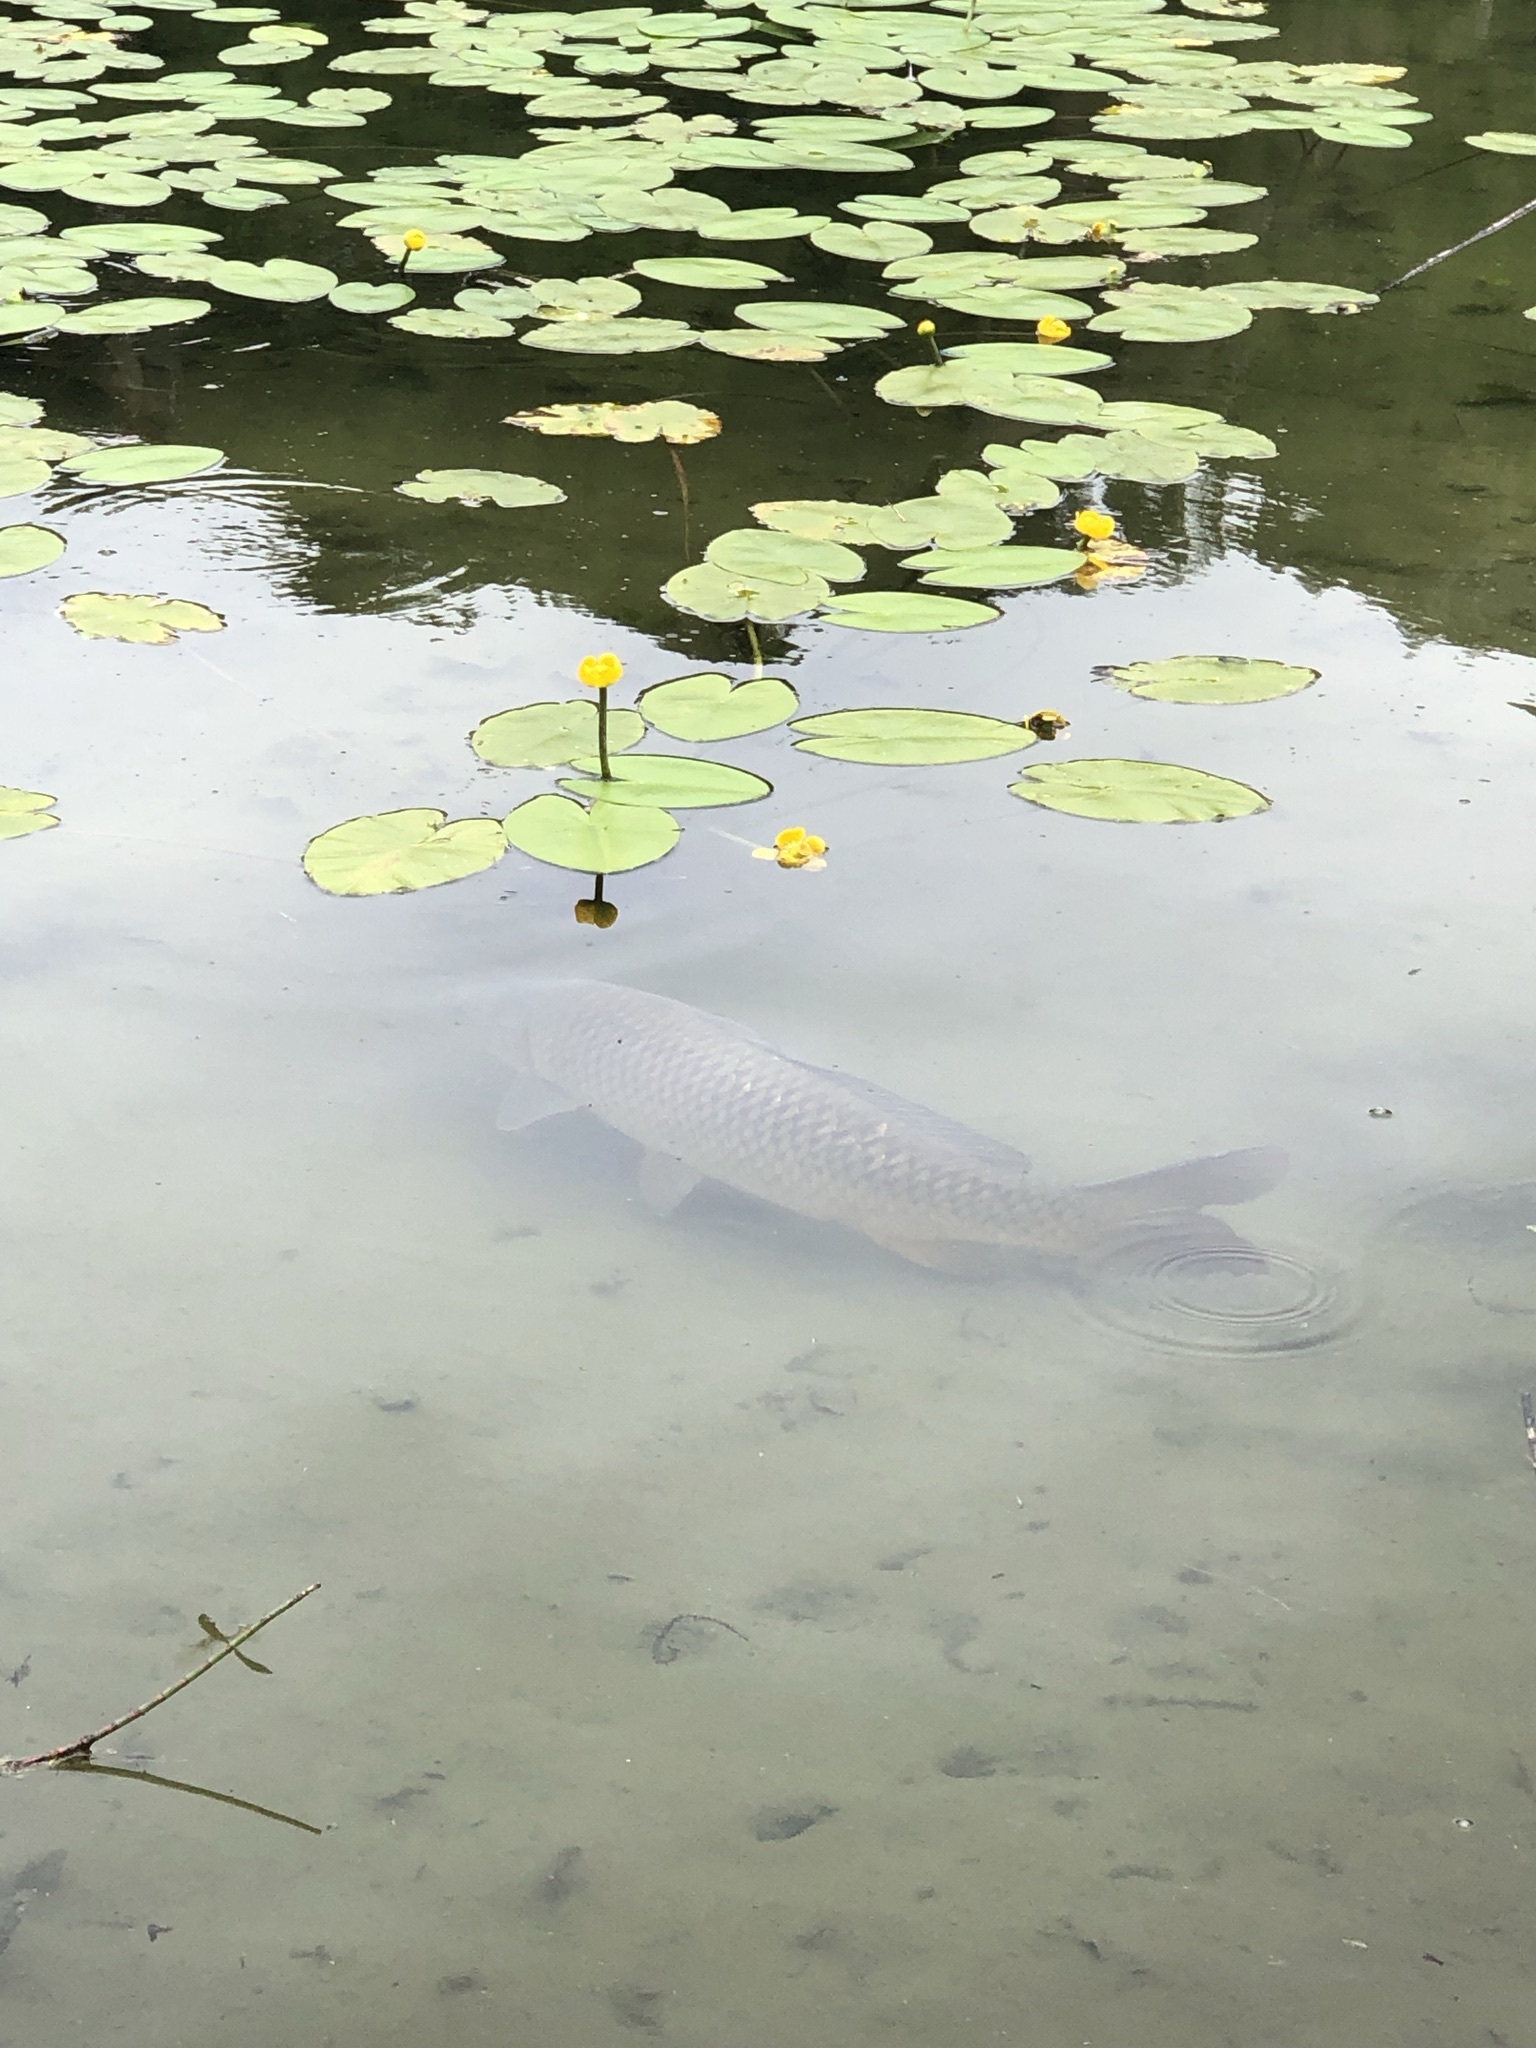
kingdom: Animalia
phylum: Chordata
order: Cypriniformes
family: Cyprinidae
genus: Cyprinus
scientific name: Cyprinus carpio
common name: Common carp
